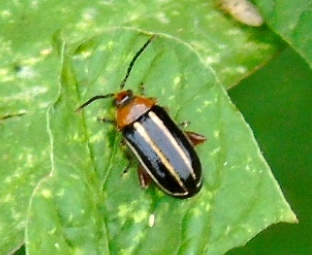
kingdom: Animalia
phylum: Arthropoda
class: Insecta
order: Coleoptera
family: Chrysomelidae
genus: Disonycha
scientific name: Disonycha glabrata
